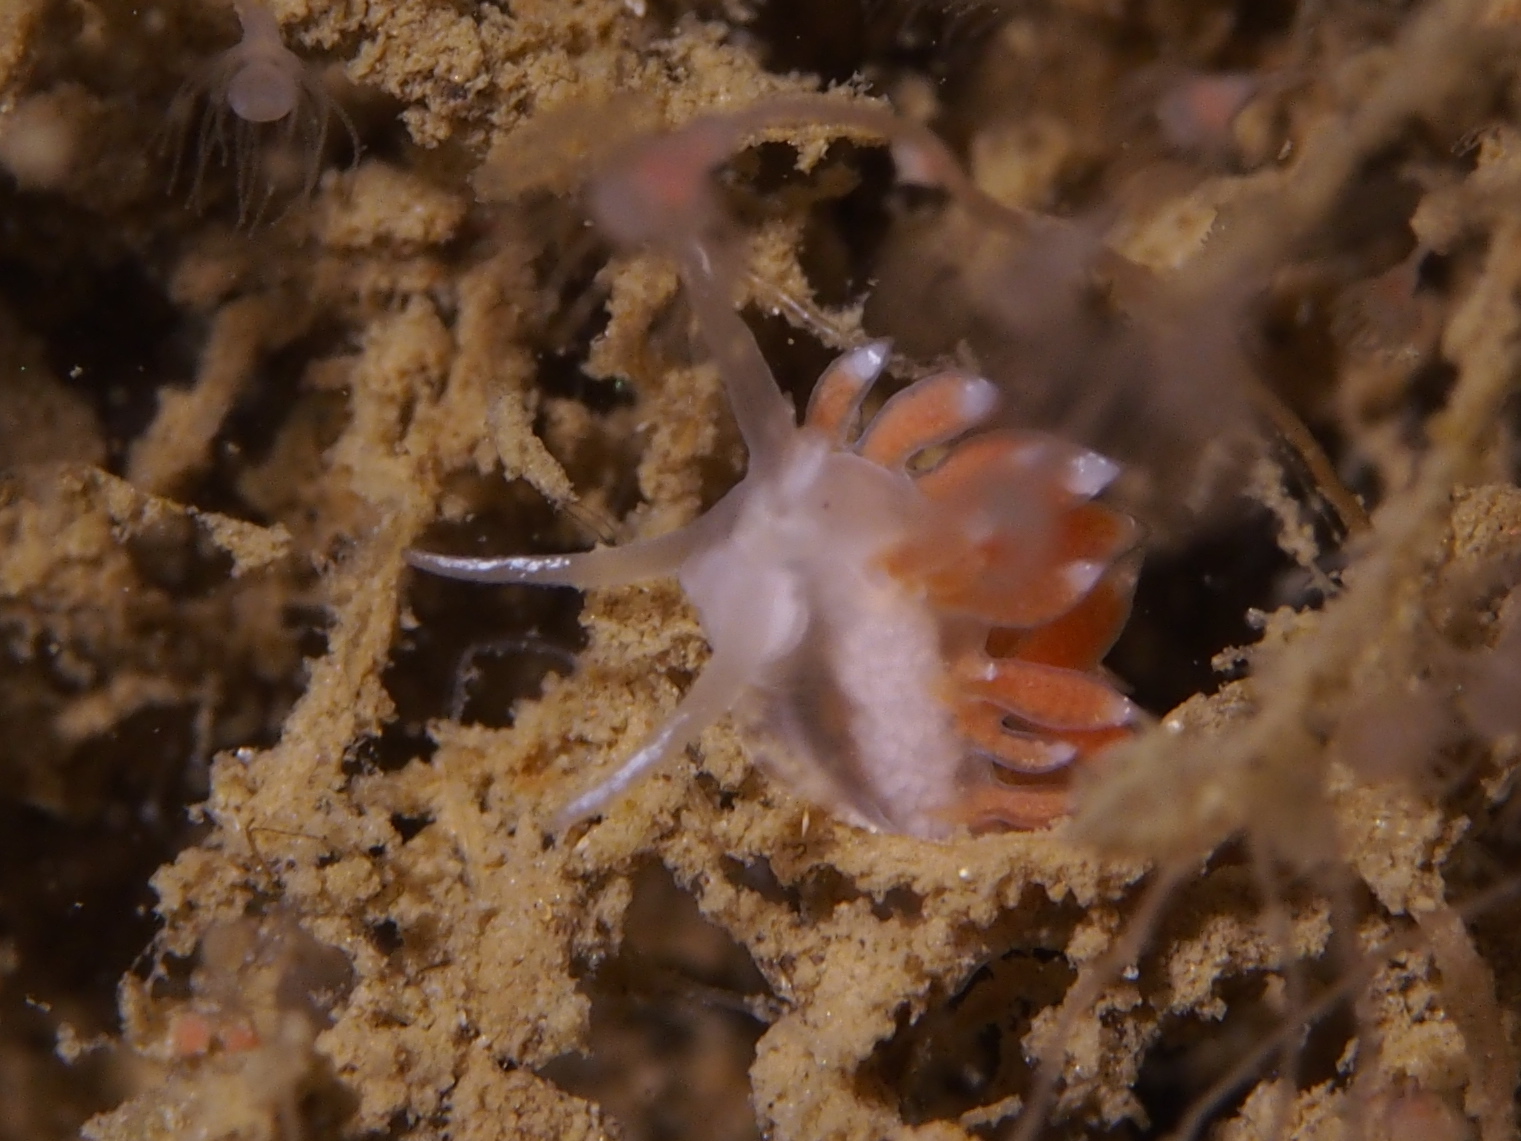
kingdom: Animalia
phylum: Mollusca
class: Gastropoda
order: Nudibranchia
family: Coryphellidae
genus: Coryphella
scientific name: Coryphella gracilis
